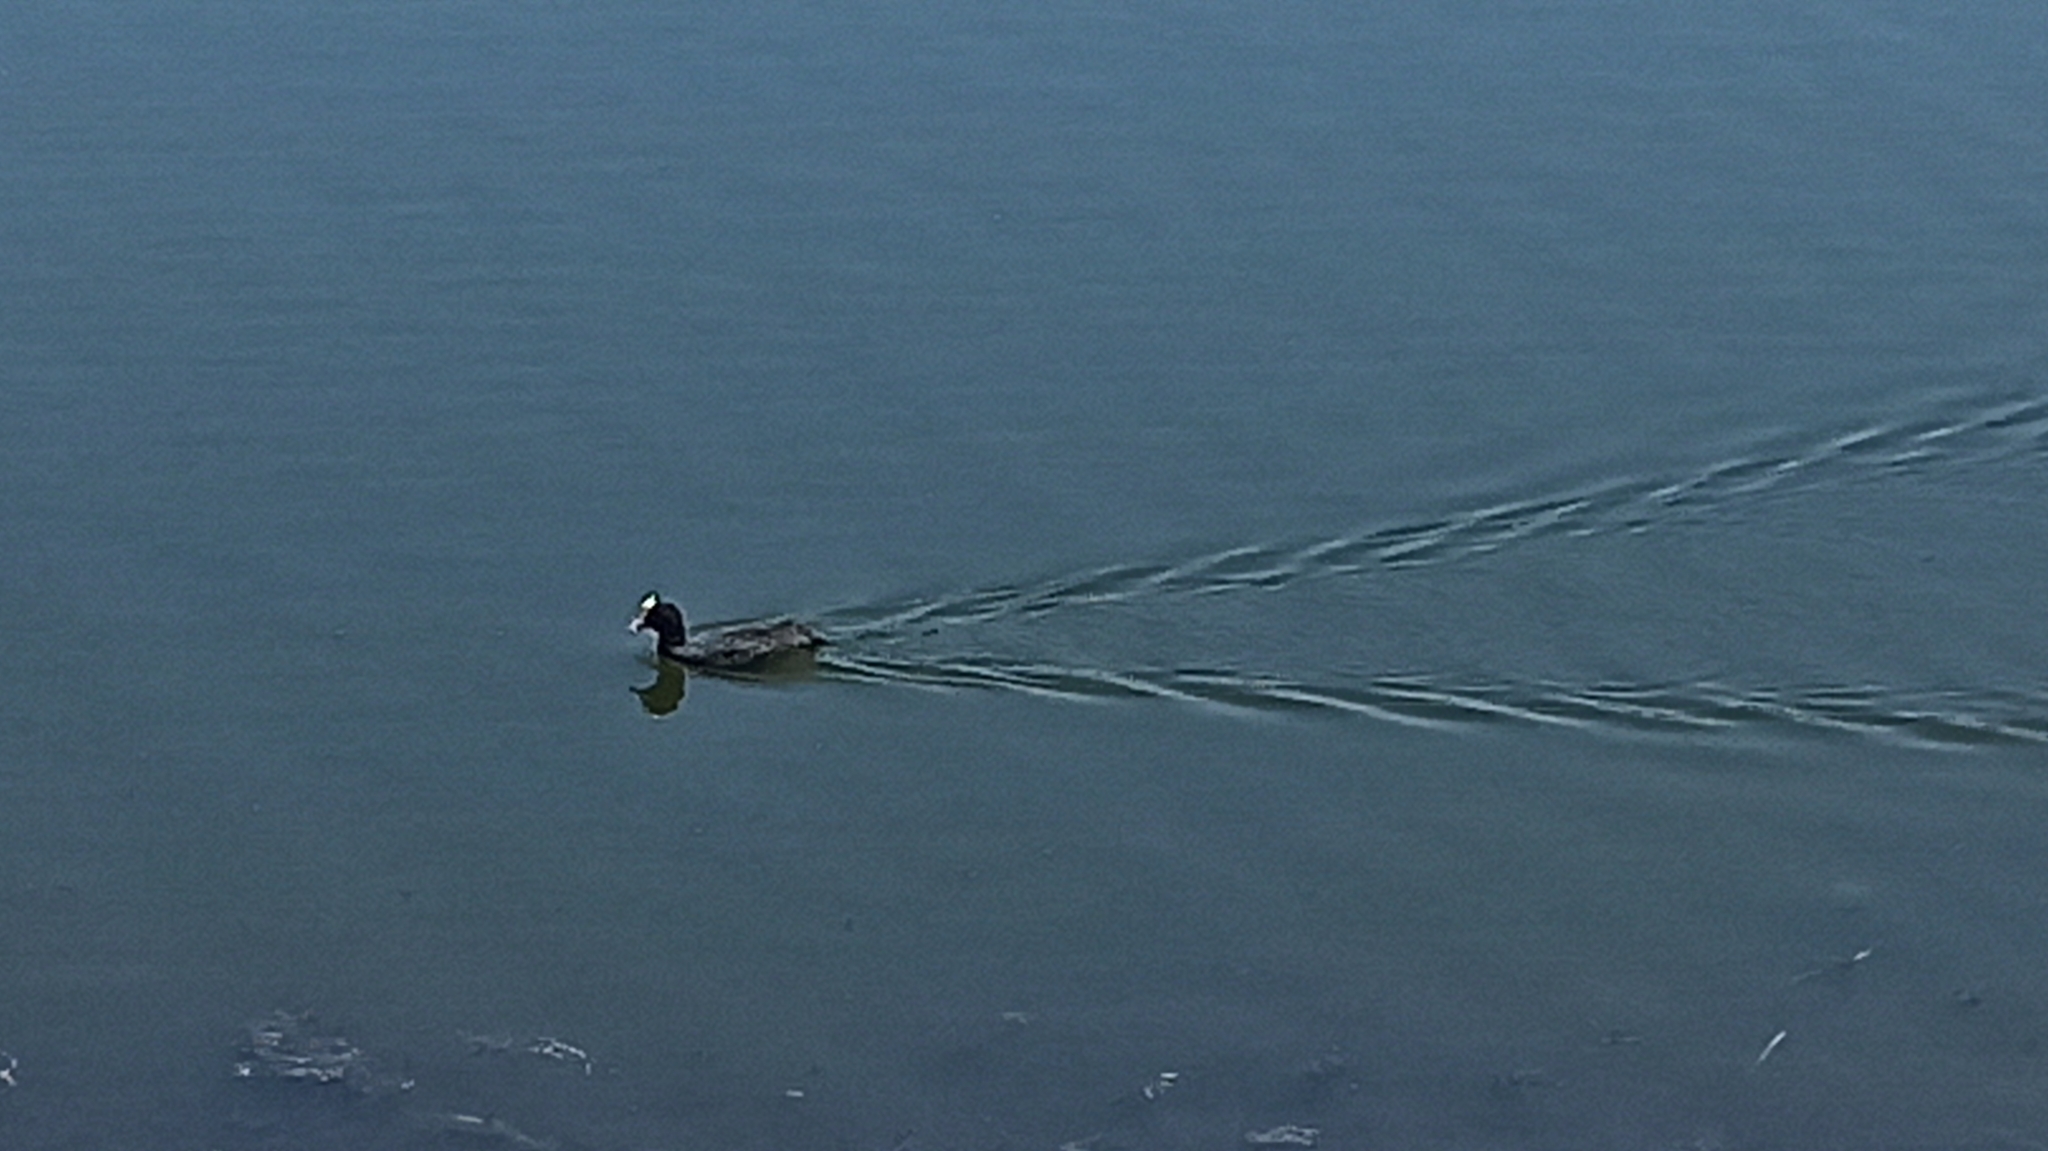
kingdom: Animalia
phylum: Chordata
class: Aves
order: Gruiformes
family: Rallidae
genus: Fulica
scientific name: Fulica atra
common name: Eurasian coot
